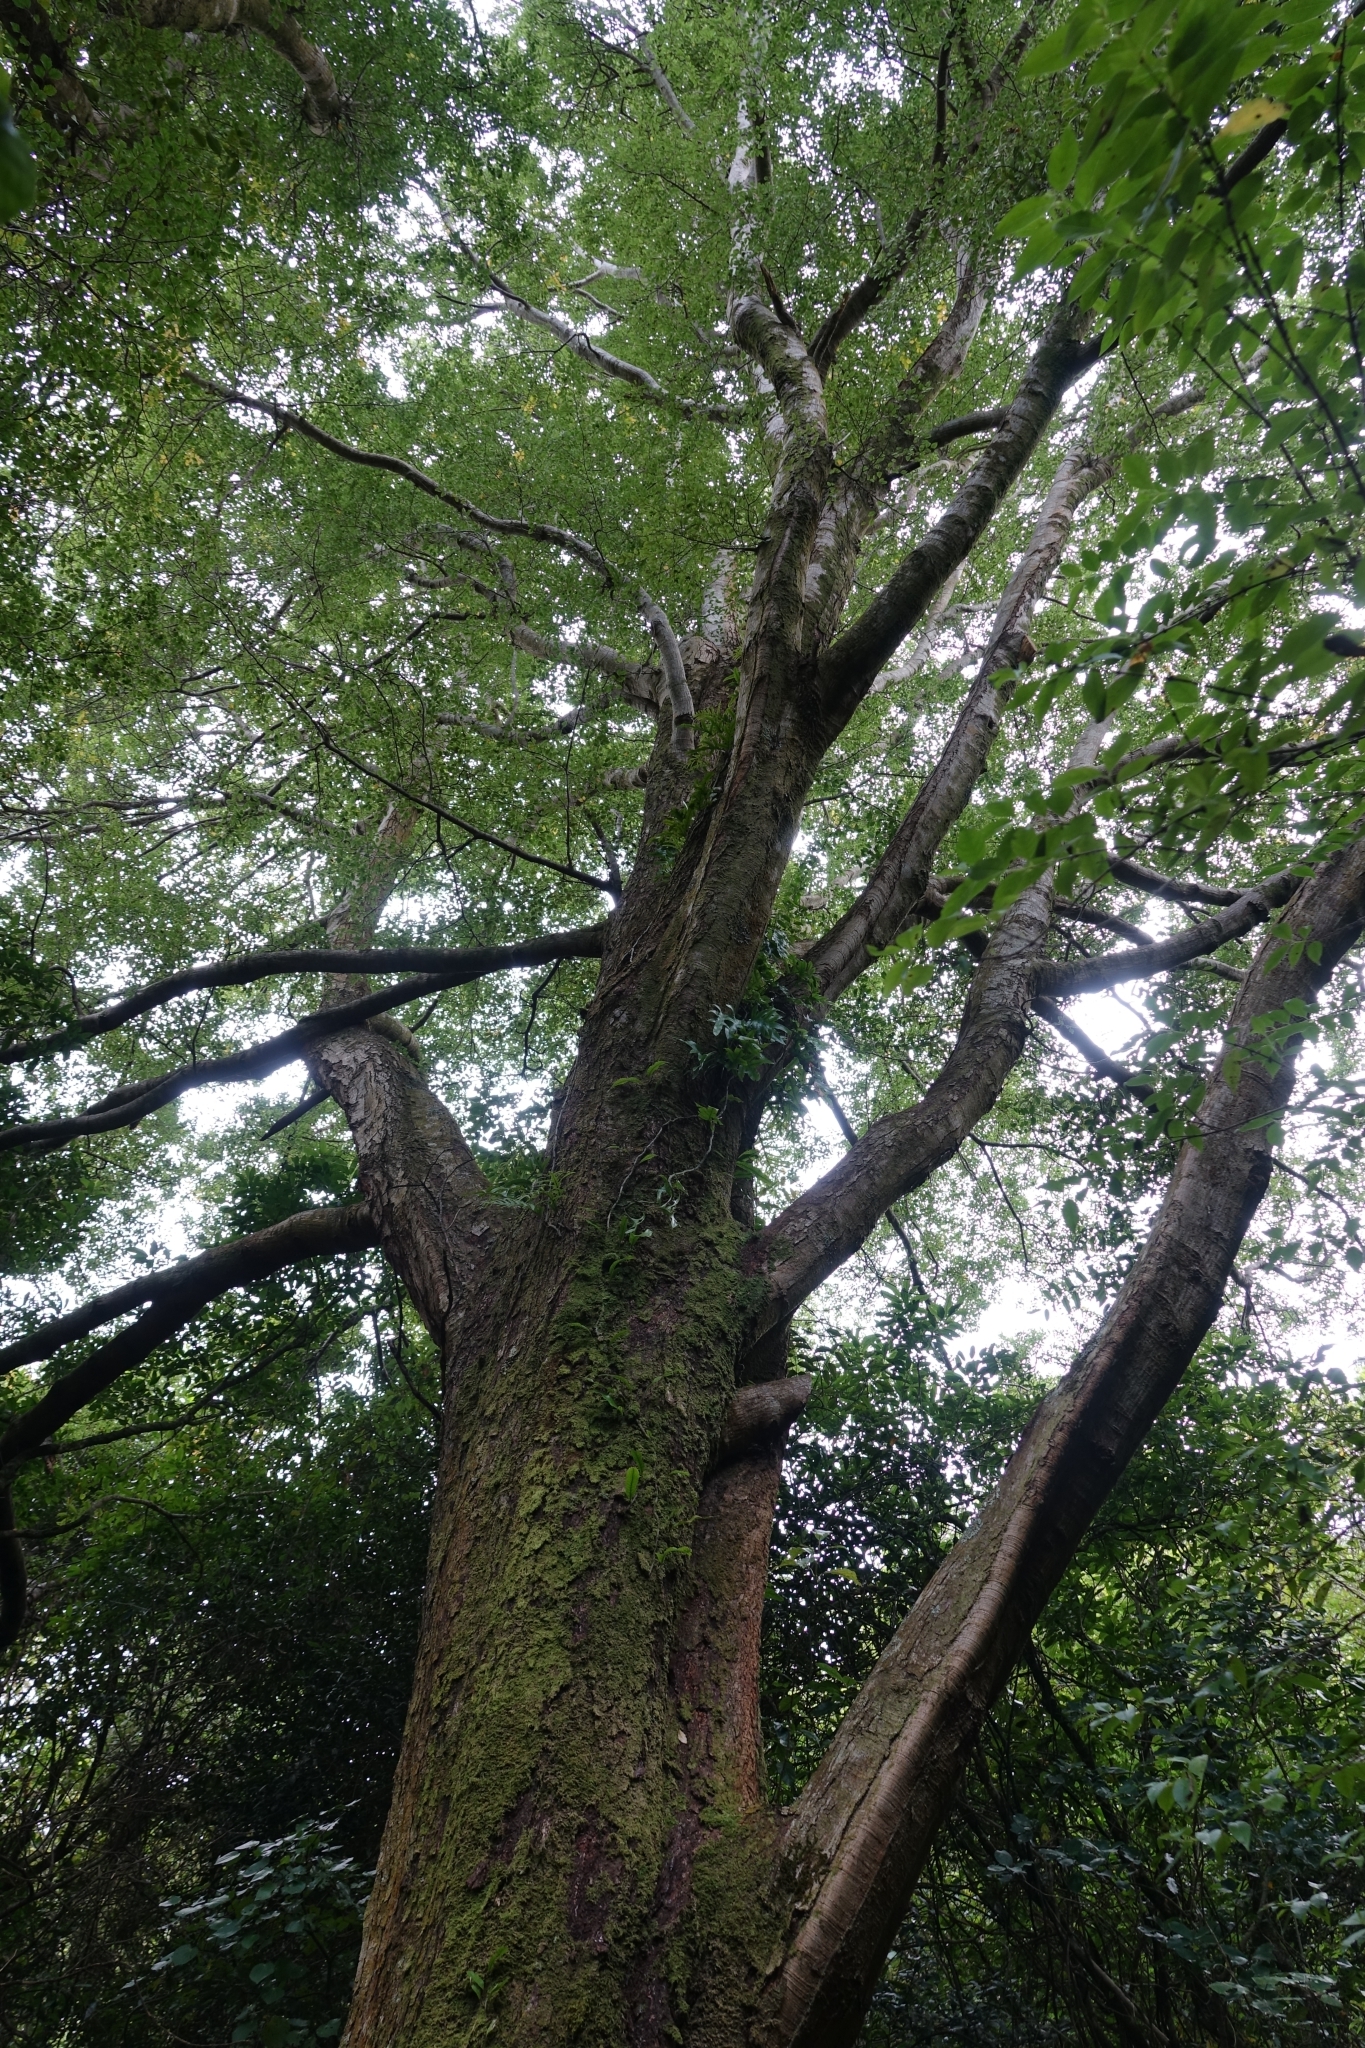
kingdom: Plantae
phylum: Tracheophyta
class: Magnoliopsida
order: Fagales
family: Nothofagaceae
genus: Nothofagus
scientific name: Nothofagus fusca
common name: Red beech
